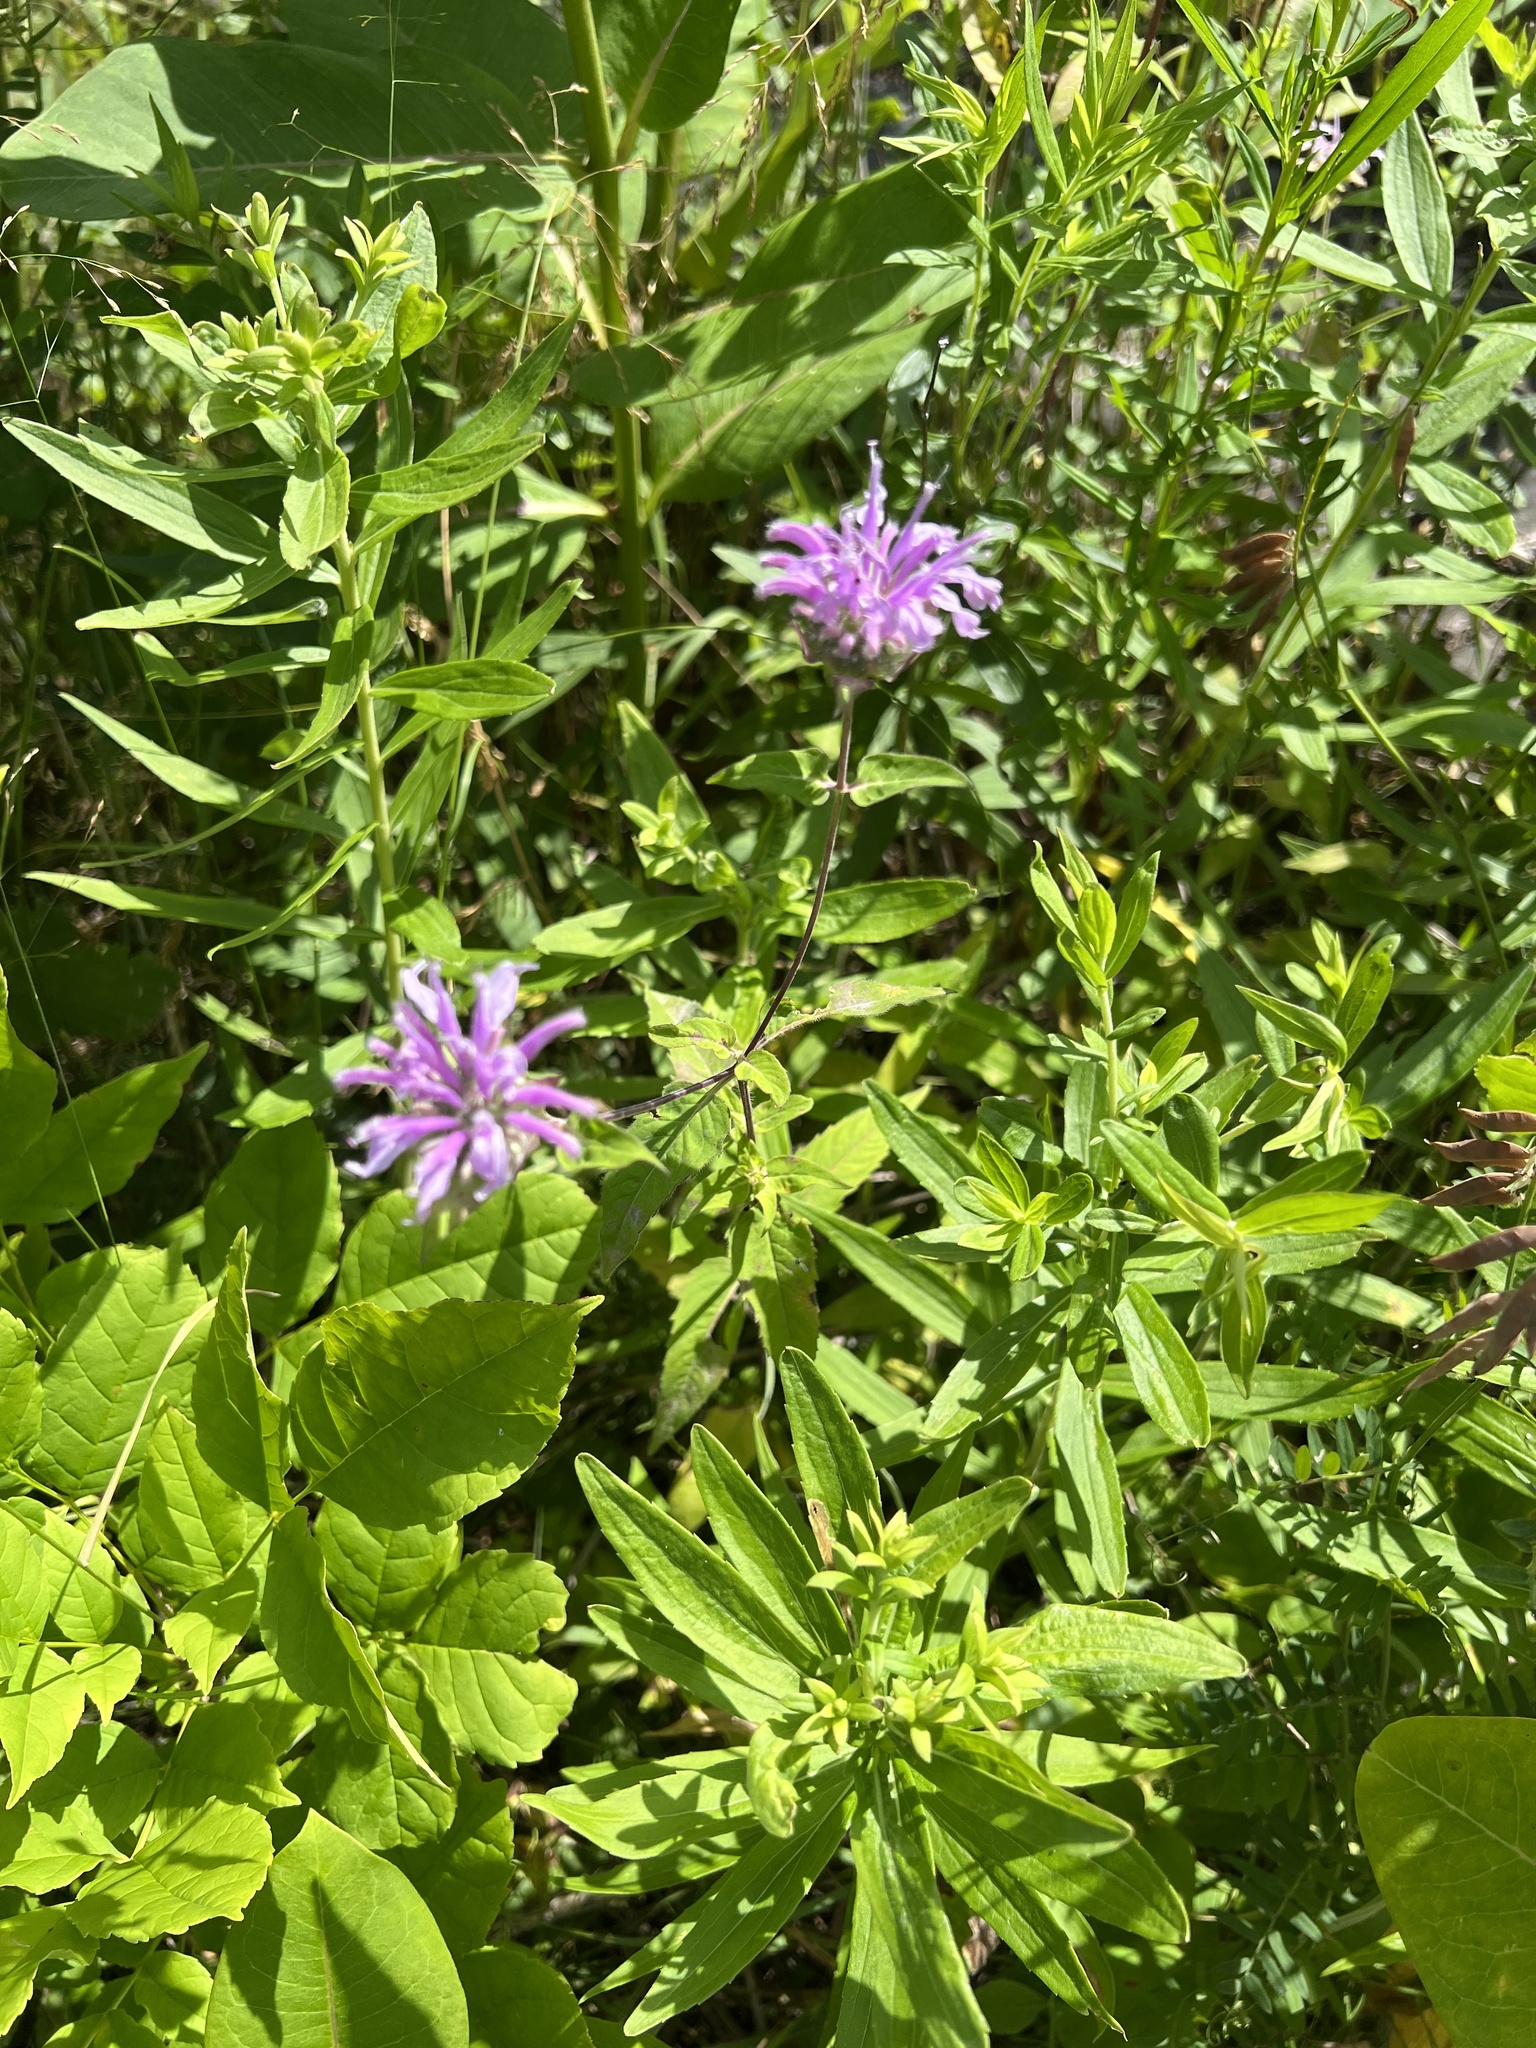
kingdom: Plantae
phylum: Tracheophyta
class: Magnoliopsida
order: Lamiales
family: Lamiaceae
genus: Monarda
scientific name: Monarda fistulosa
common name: Purple beebalm
